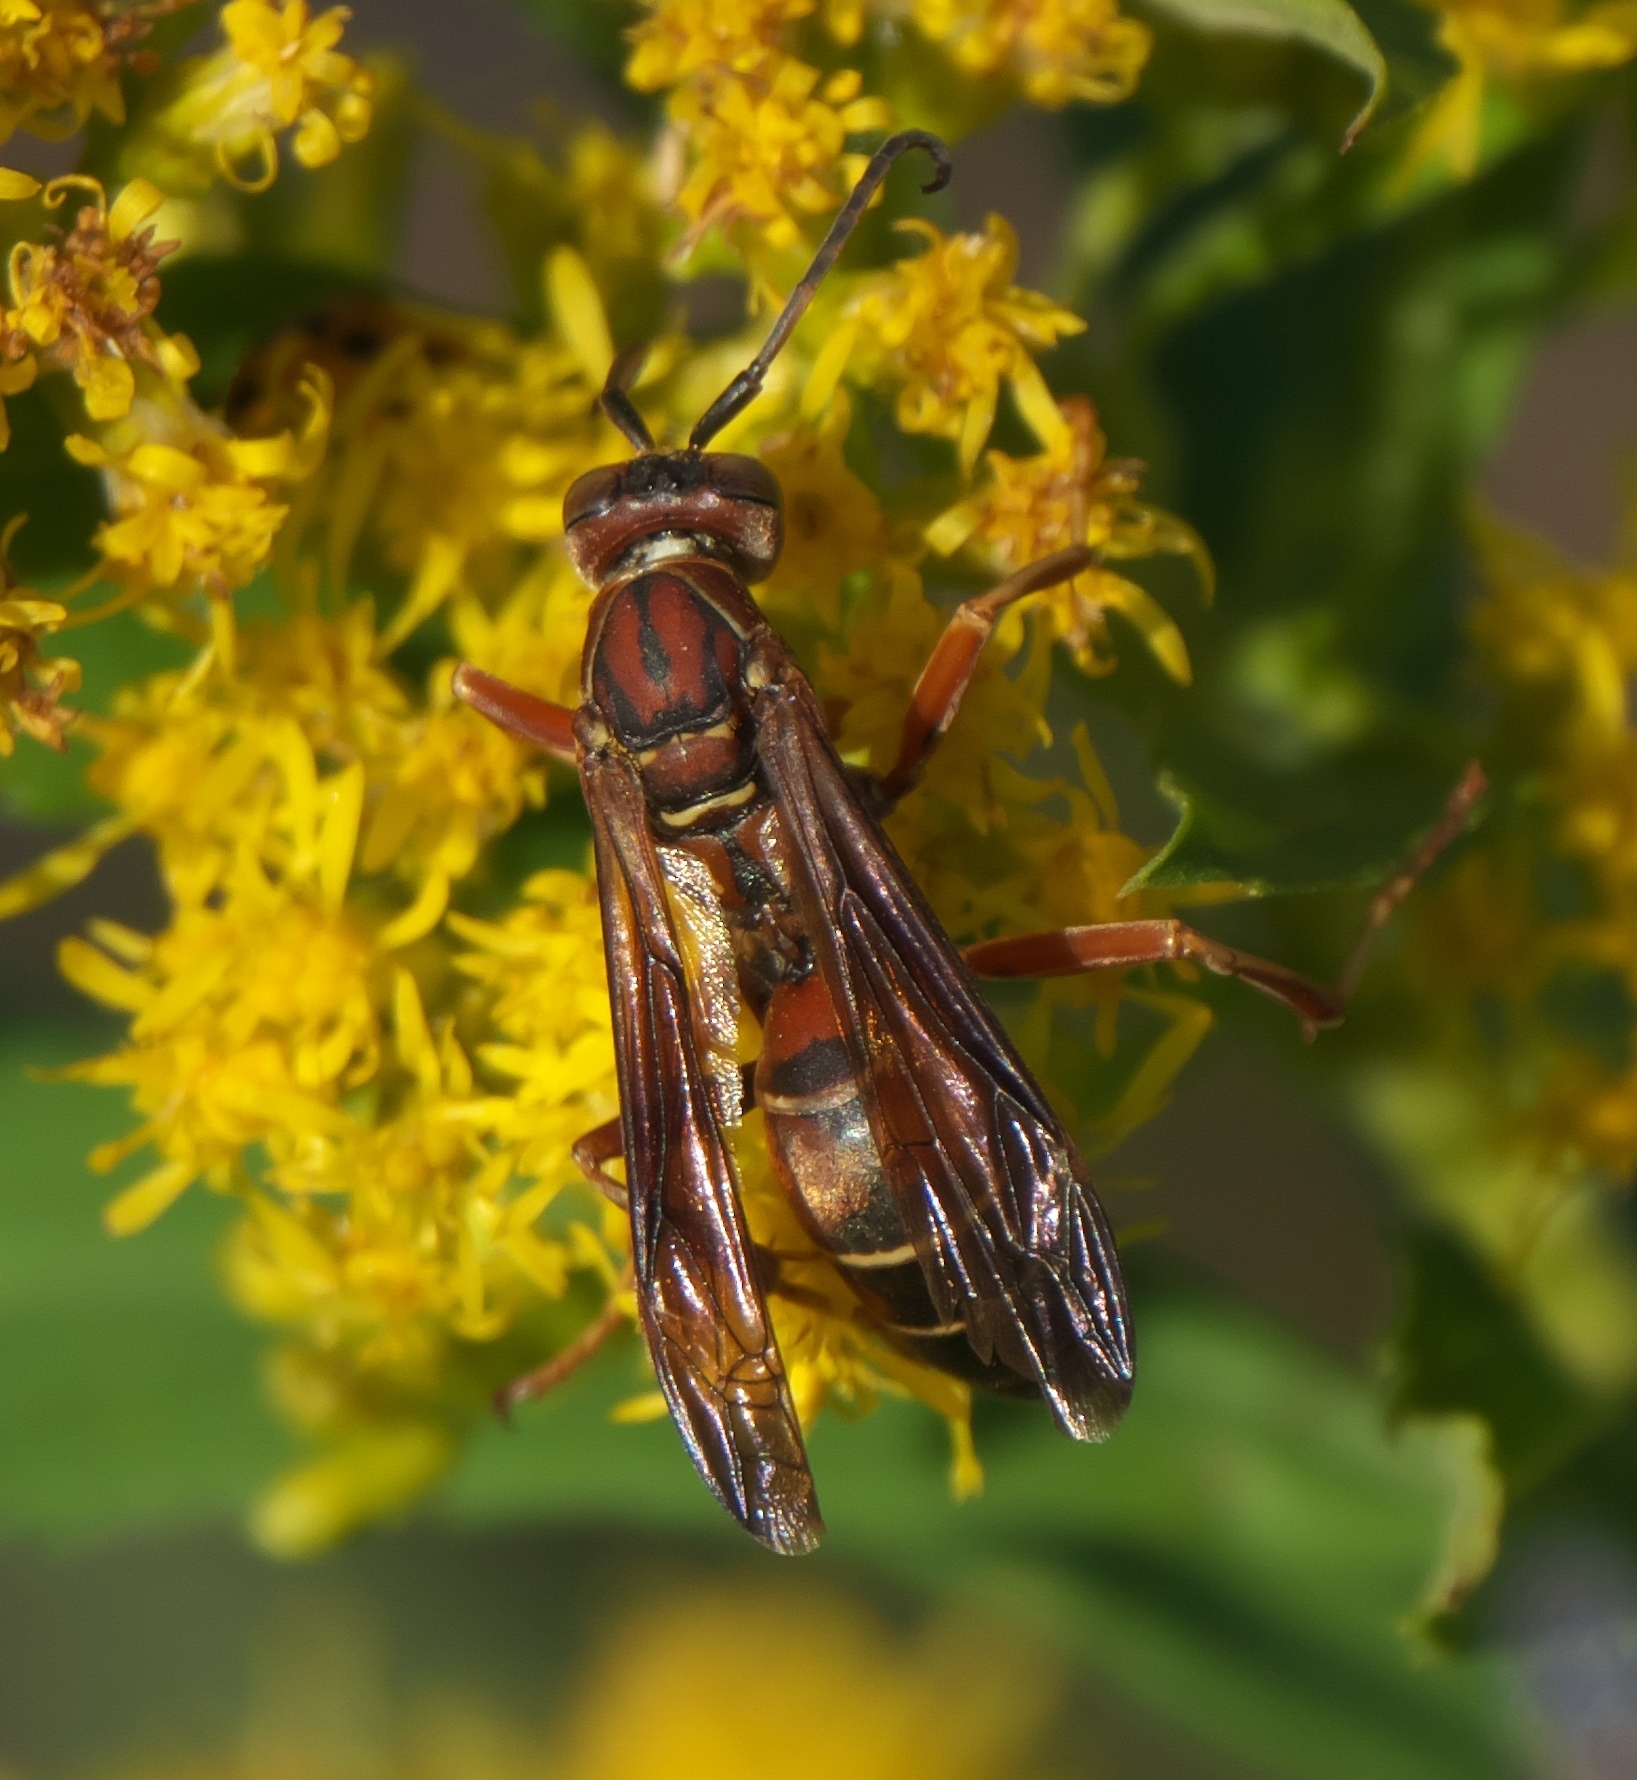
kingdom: Animalia
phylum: Arthropoda
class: Insecta
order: Hymenoptera
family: Eumenidae
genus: Polistes
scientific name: Polistes fuscatus
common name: Dark paper wasp
